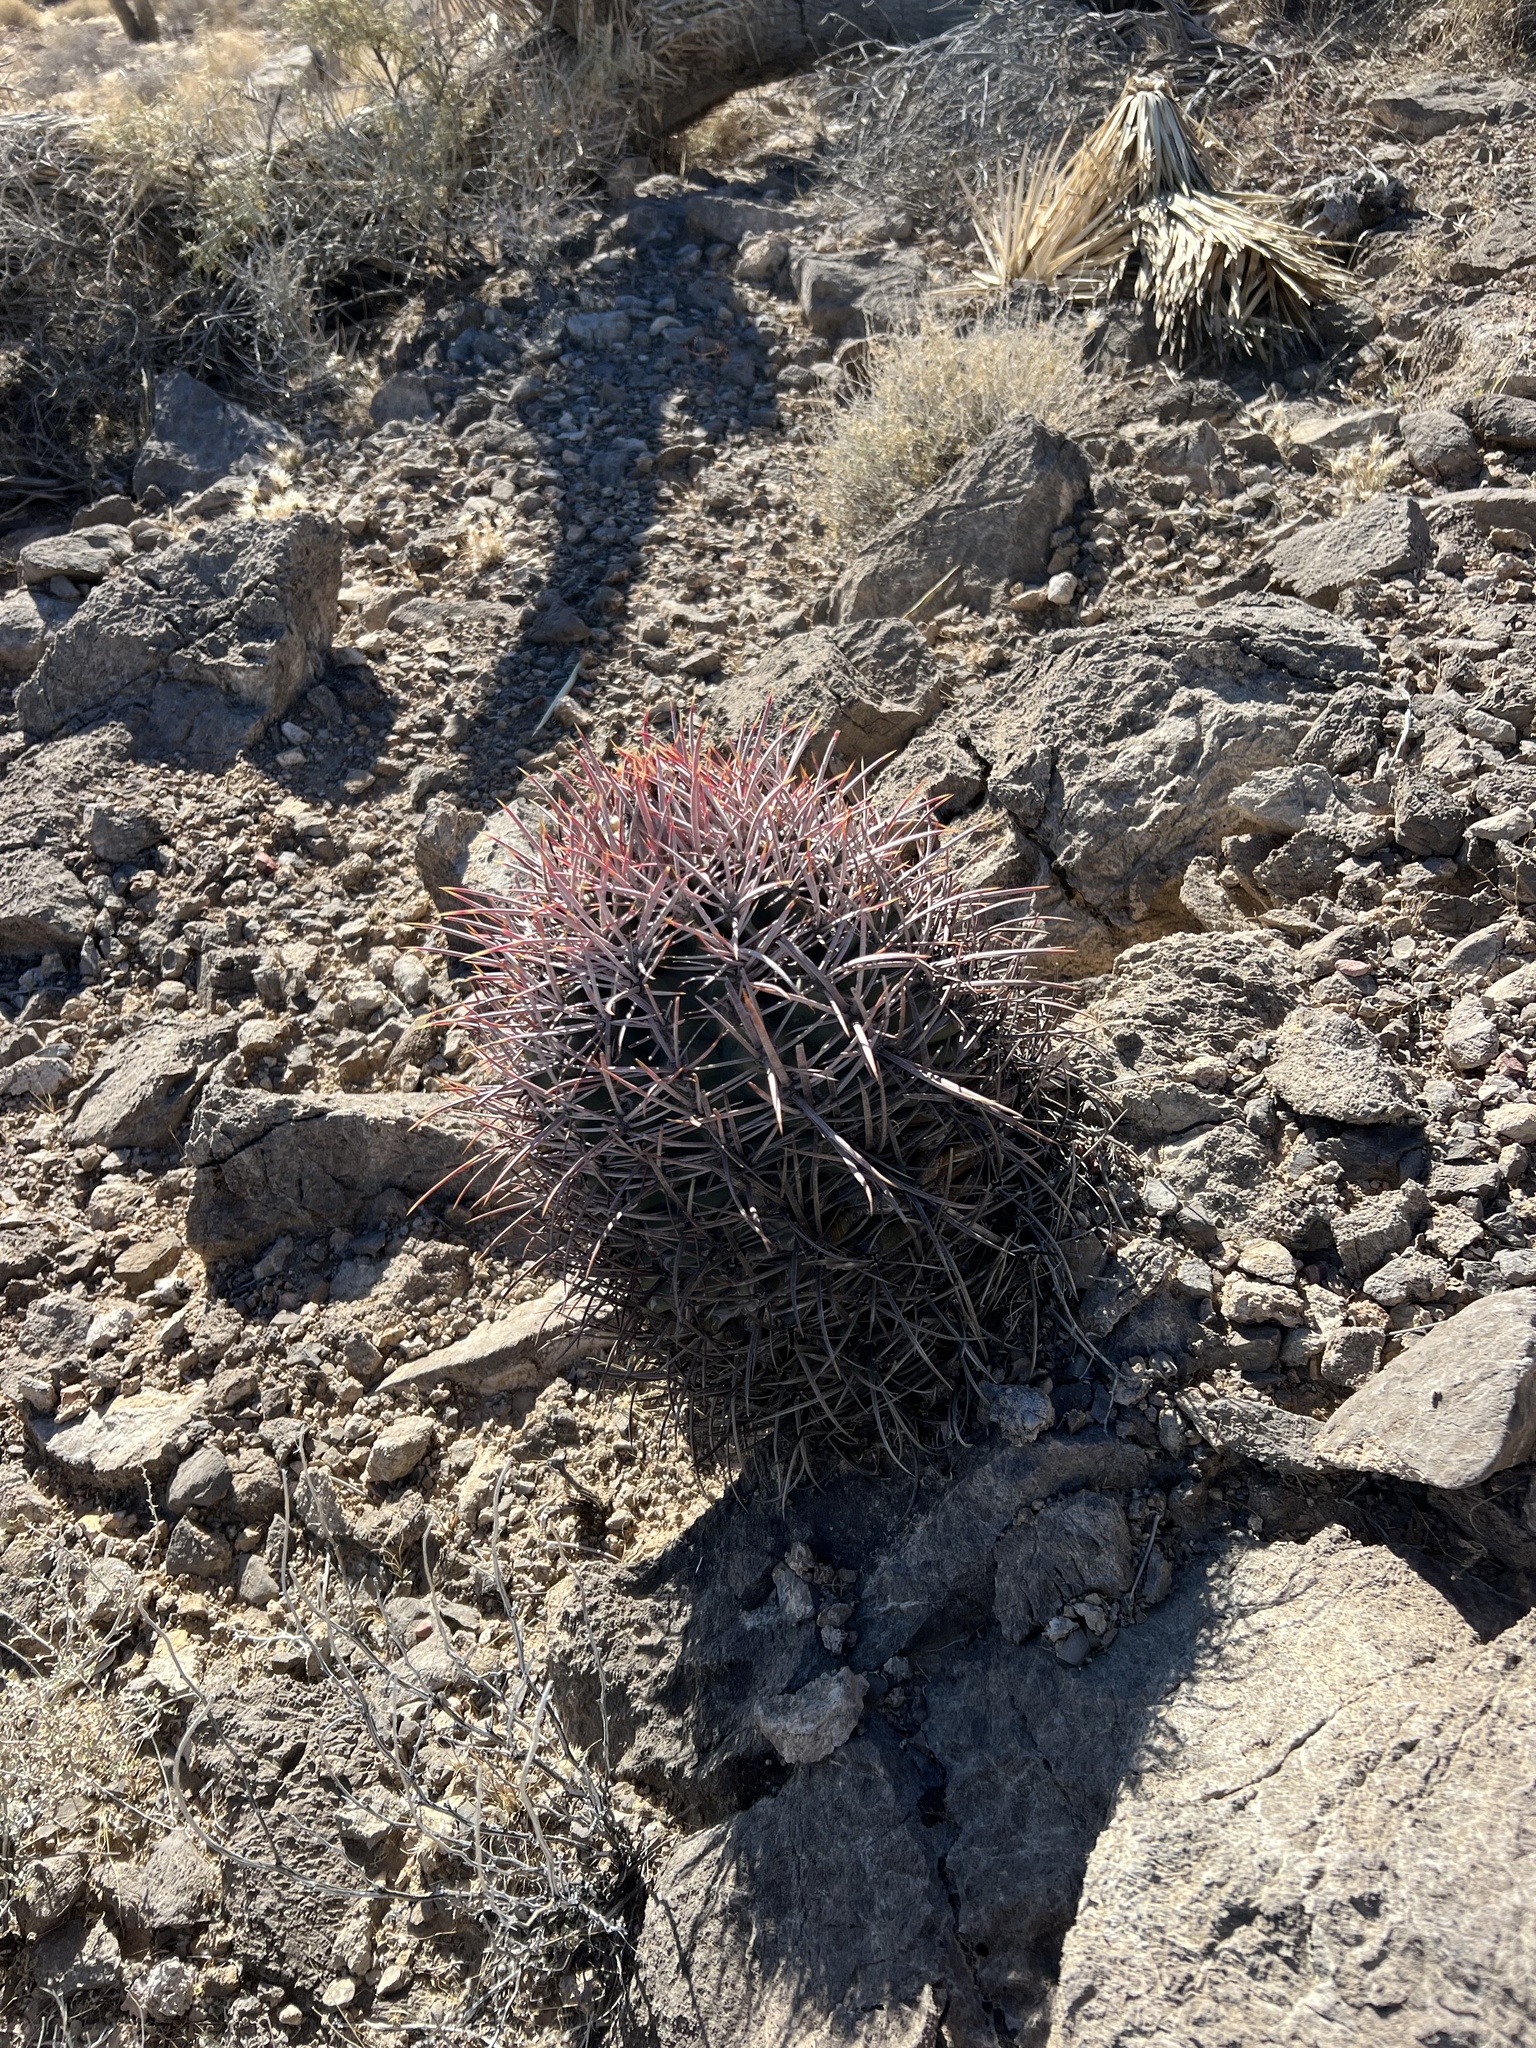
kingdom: Plantae
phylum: Tracheophyta
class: Magnoliopsida
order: Caryophyllales
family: Cactaceae
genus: Echinocactus
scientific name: Echinocactus polycephalus
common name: Cottontop cactus
